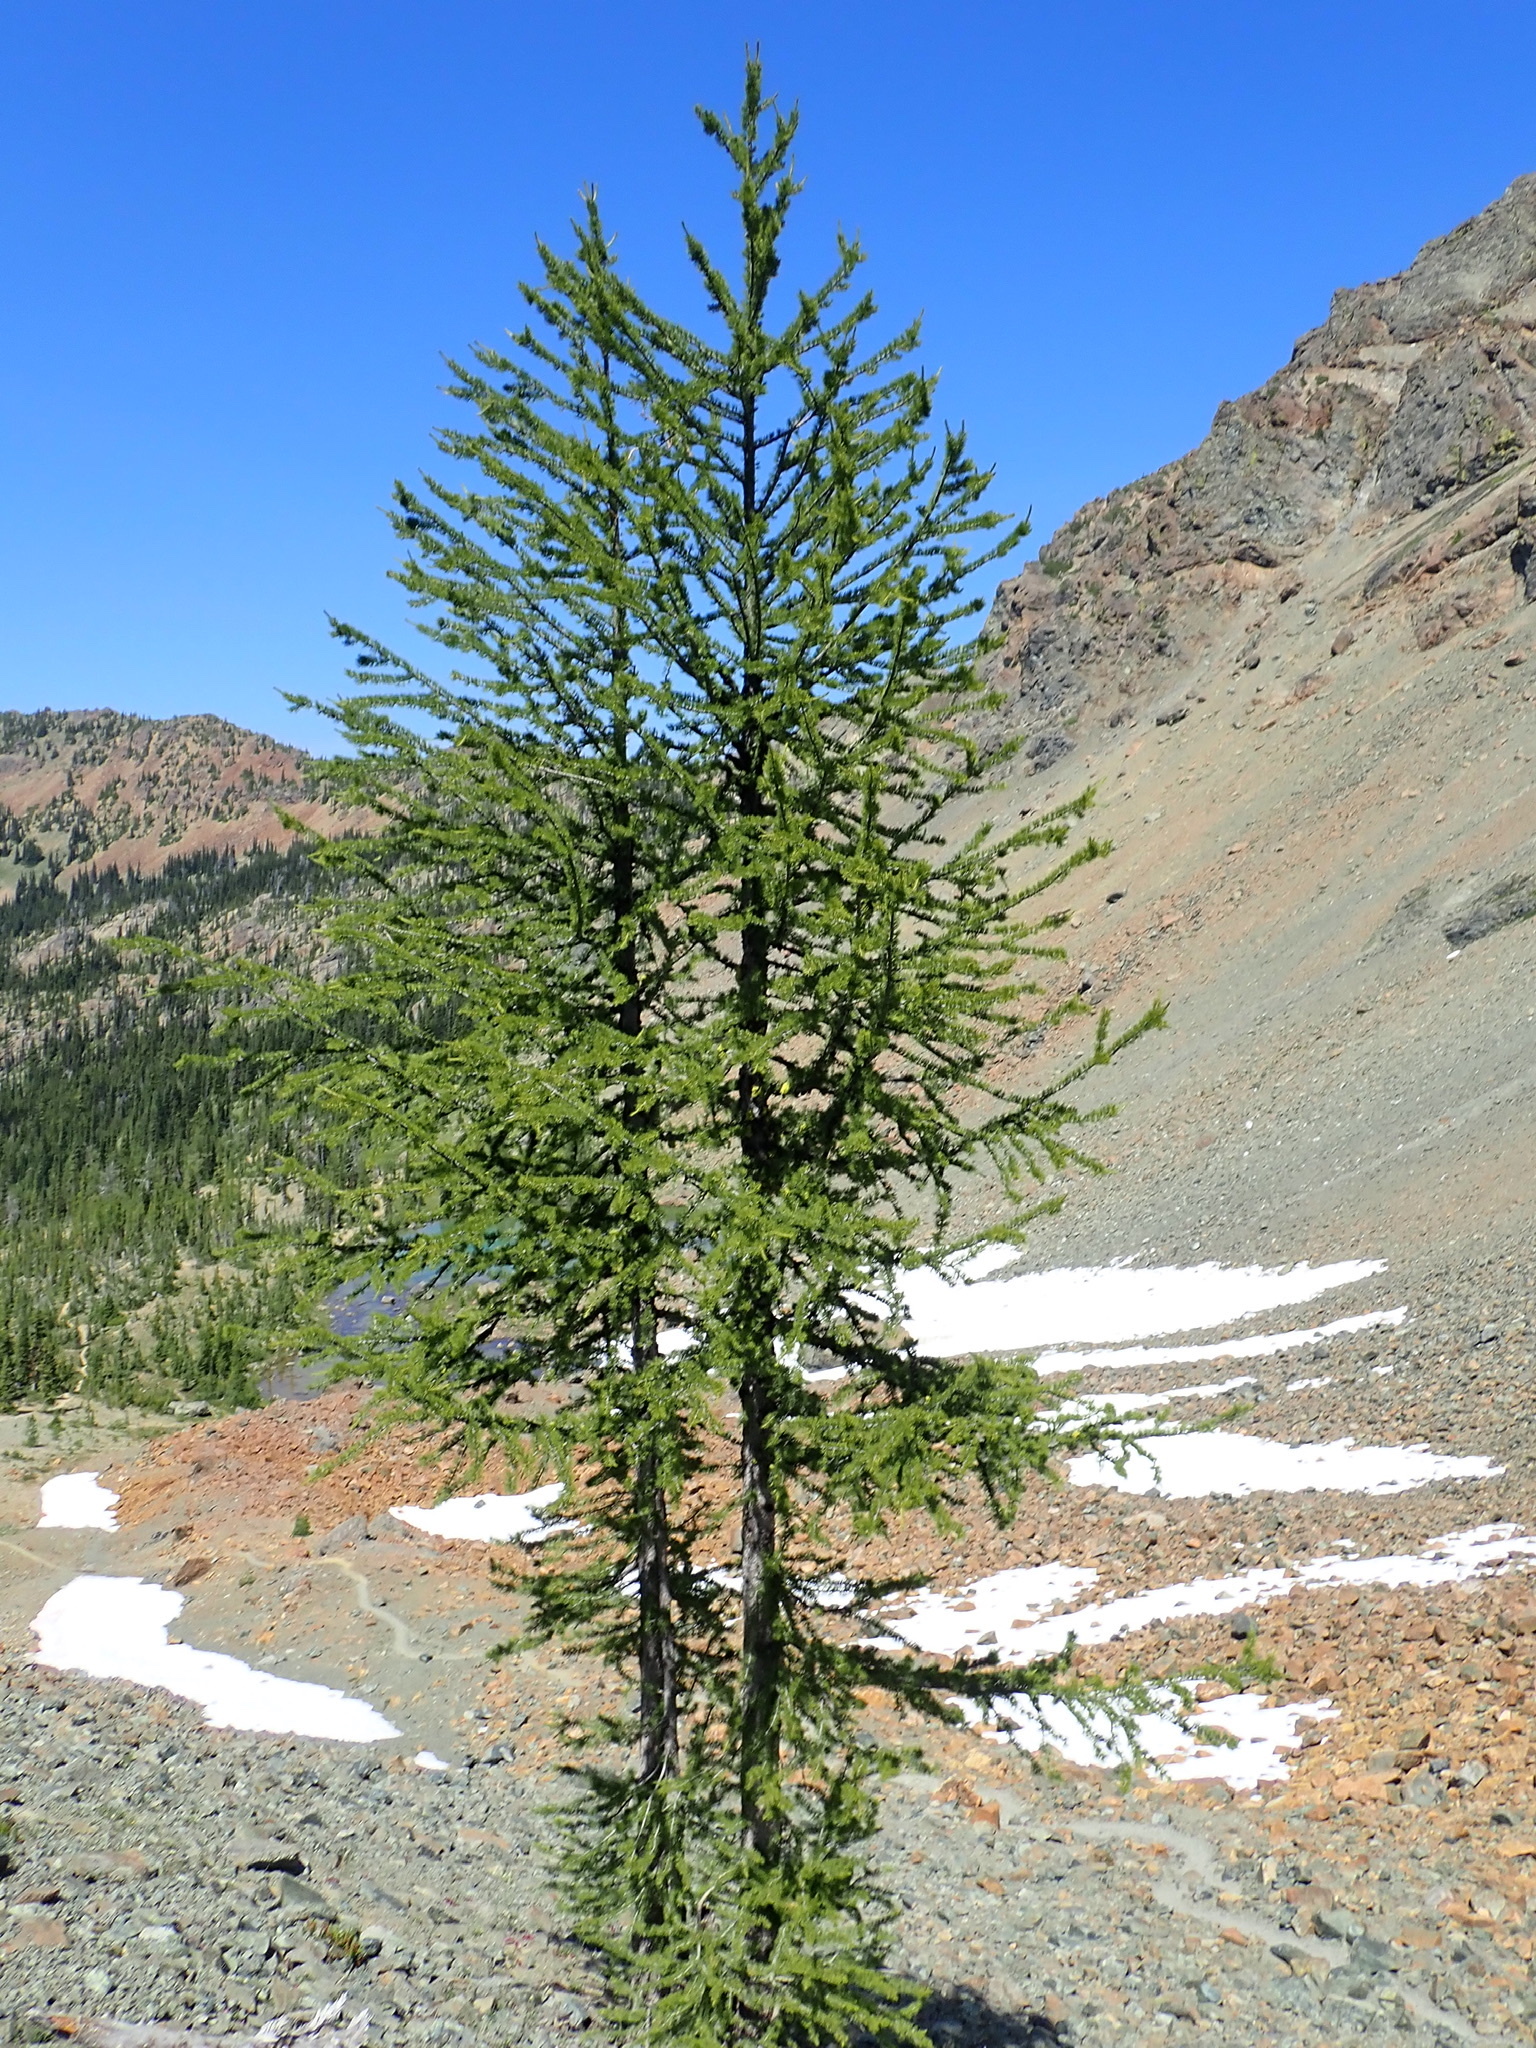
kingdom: Plantae
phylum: Tracheophyta
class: Pinopsida
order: Pinales
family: Pinaceae
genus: Larix
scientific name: Larix lyallii
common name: Alpine larch
